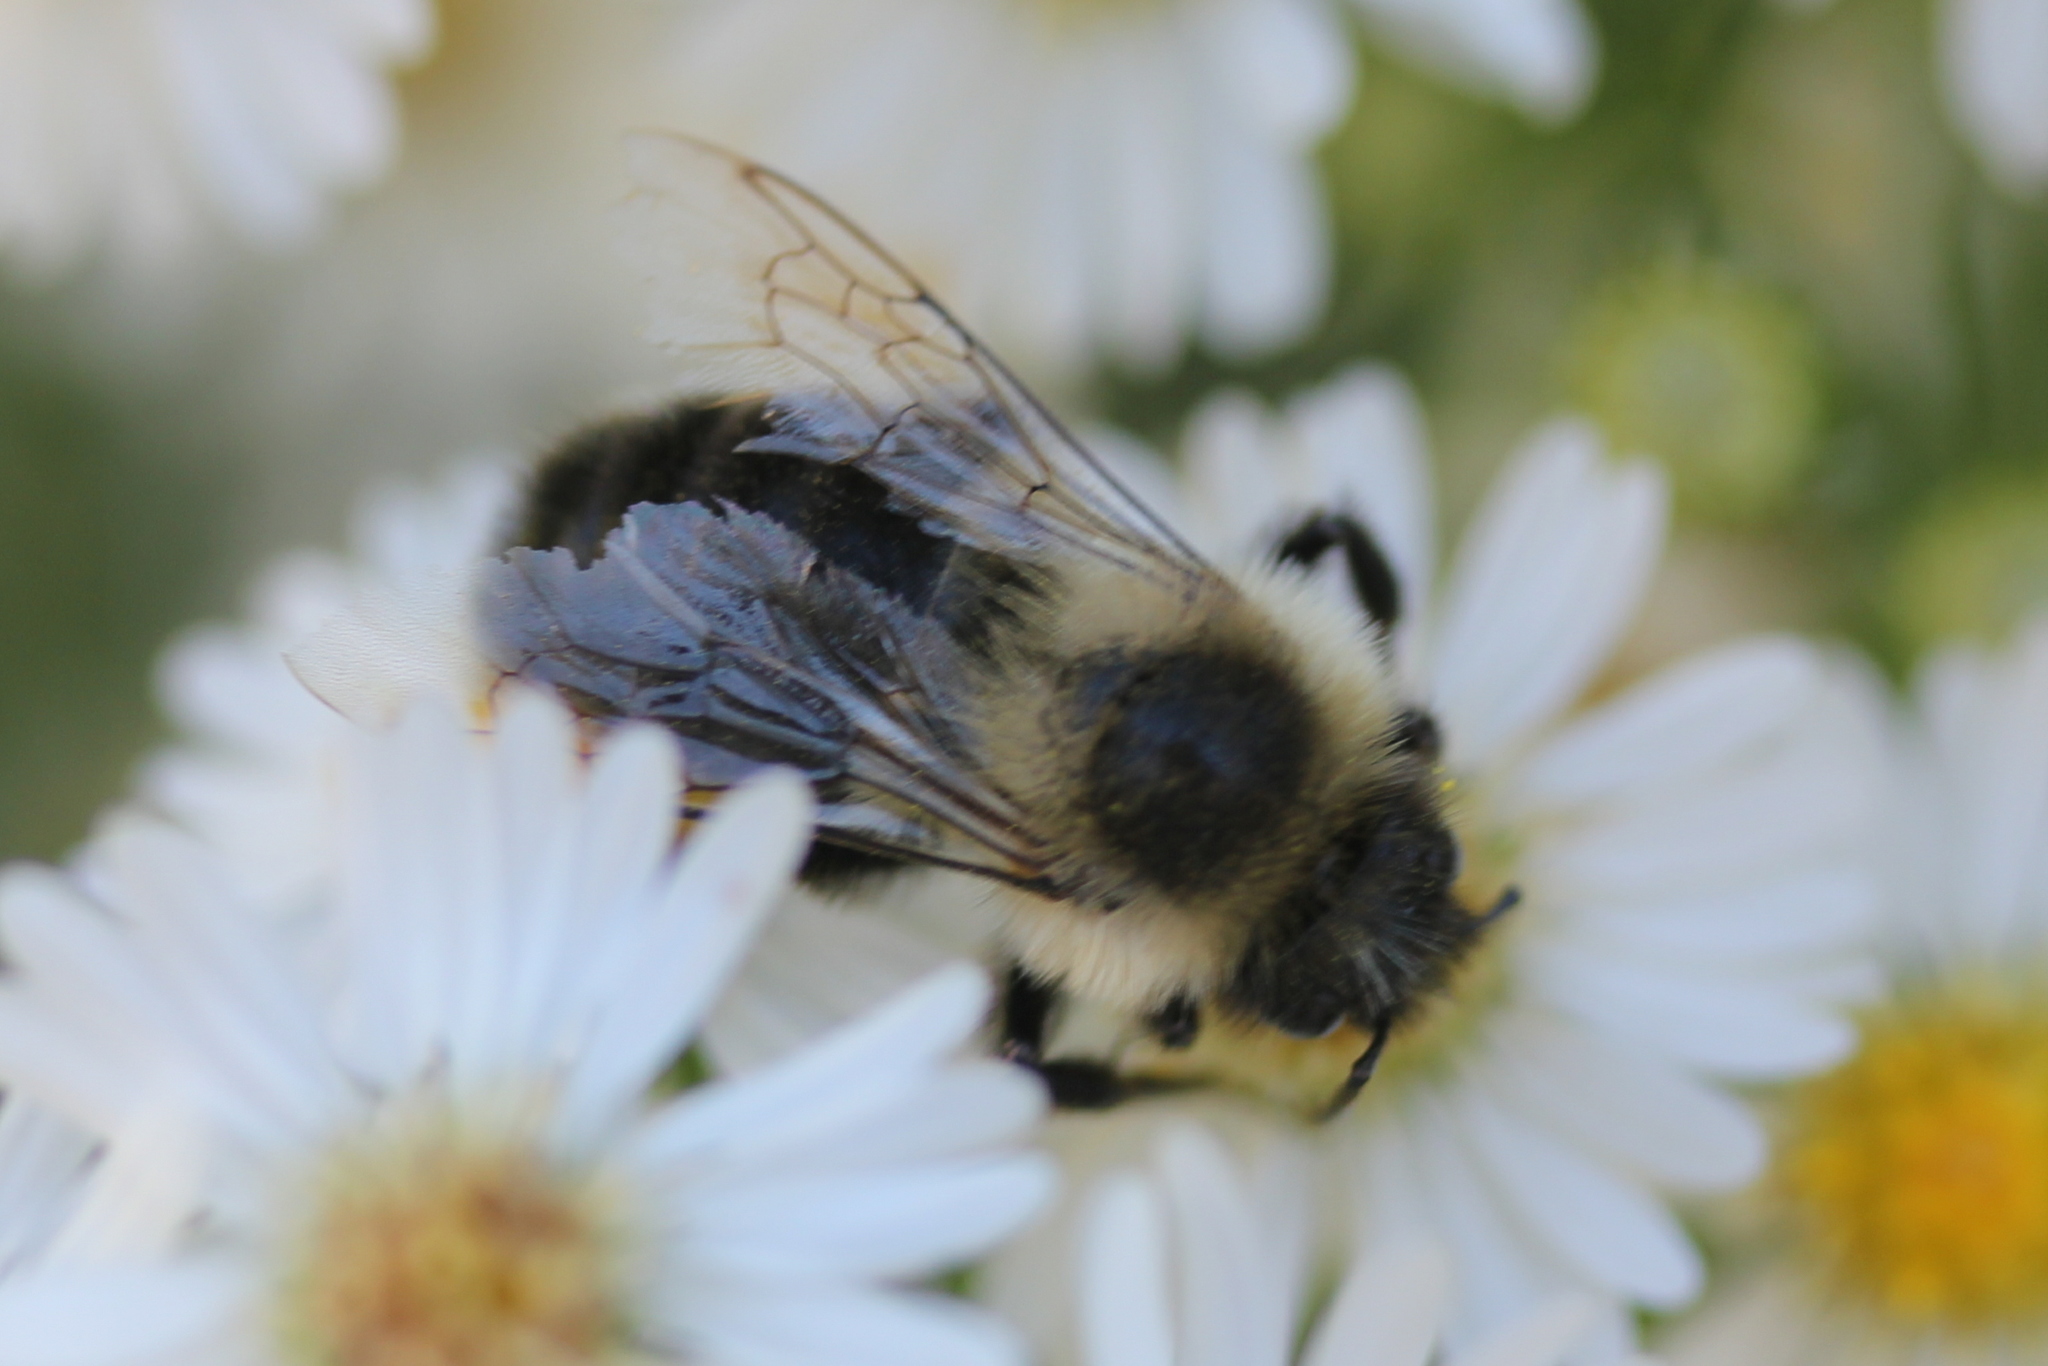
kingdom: Animalia
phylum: Arthropoda
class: Insecta
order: Hymenoptera
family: Apidae
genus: Bombus
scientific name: Bombus impatiens
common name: Common eastern bumble bee
